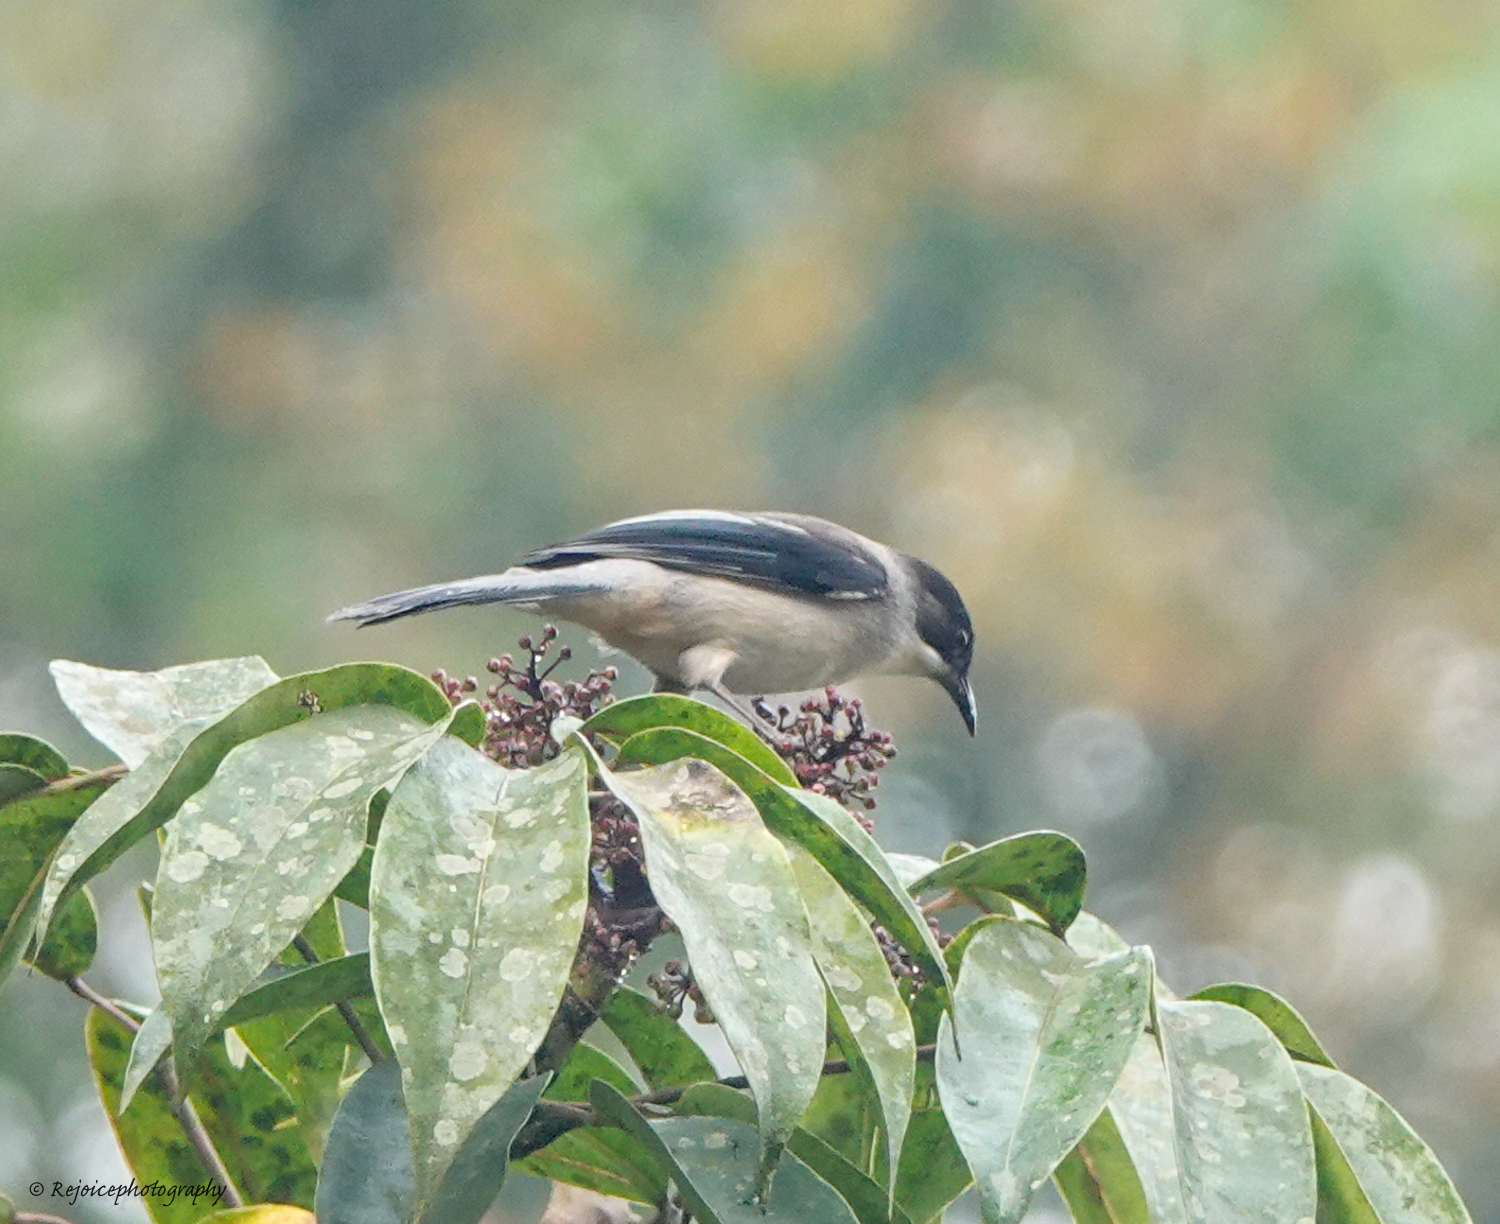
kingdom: Animalia
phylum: Chordata
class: Aves
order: Passeriformes
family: Leiothrichidae
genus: Heterophasia
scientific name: Heterophasia gracilis
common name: Grey sibia
